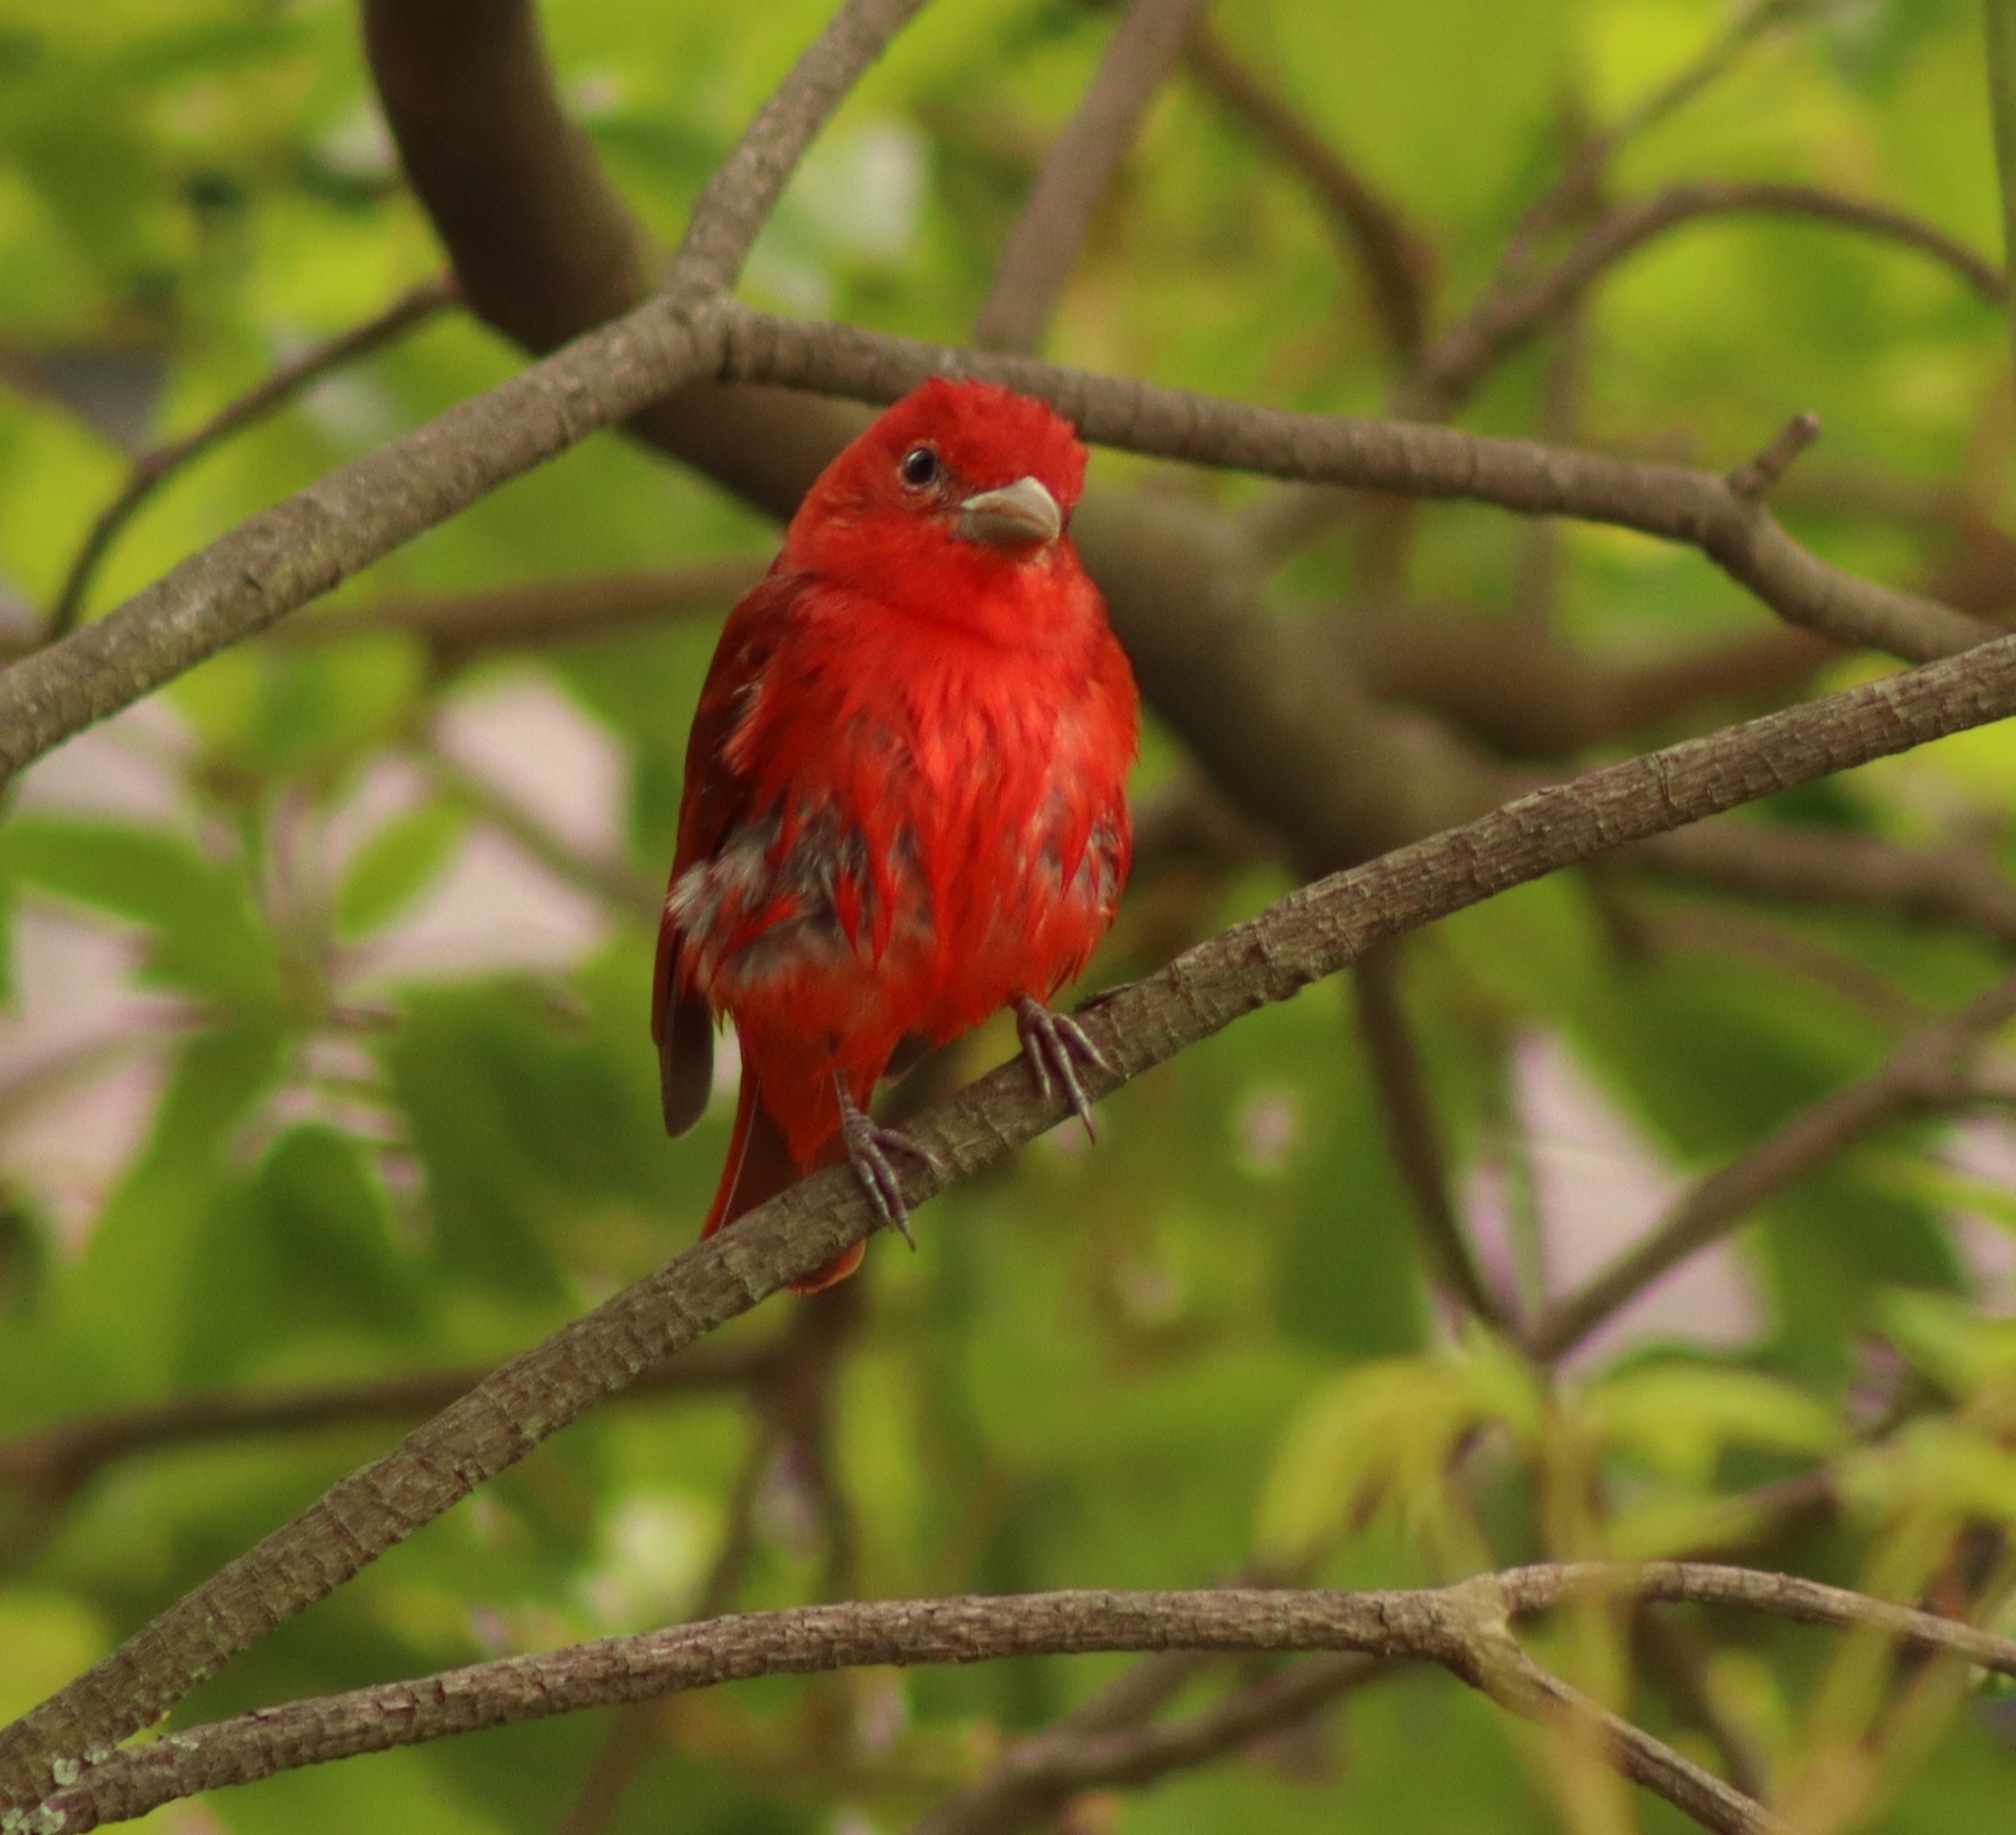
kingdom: Animalia
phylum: Chordata
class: Aves
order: Passeriformes
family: Cardinalidae
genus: Piranga
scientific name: Piranga rubra
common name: Summer tanager
